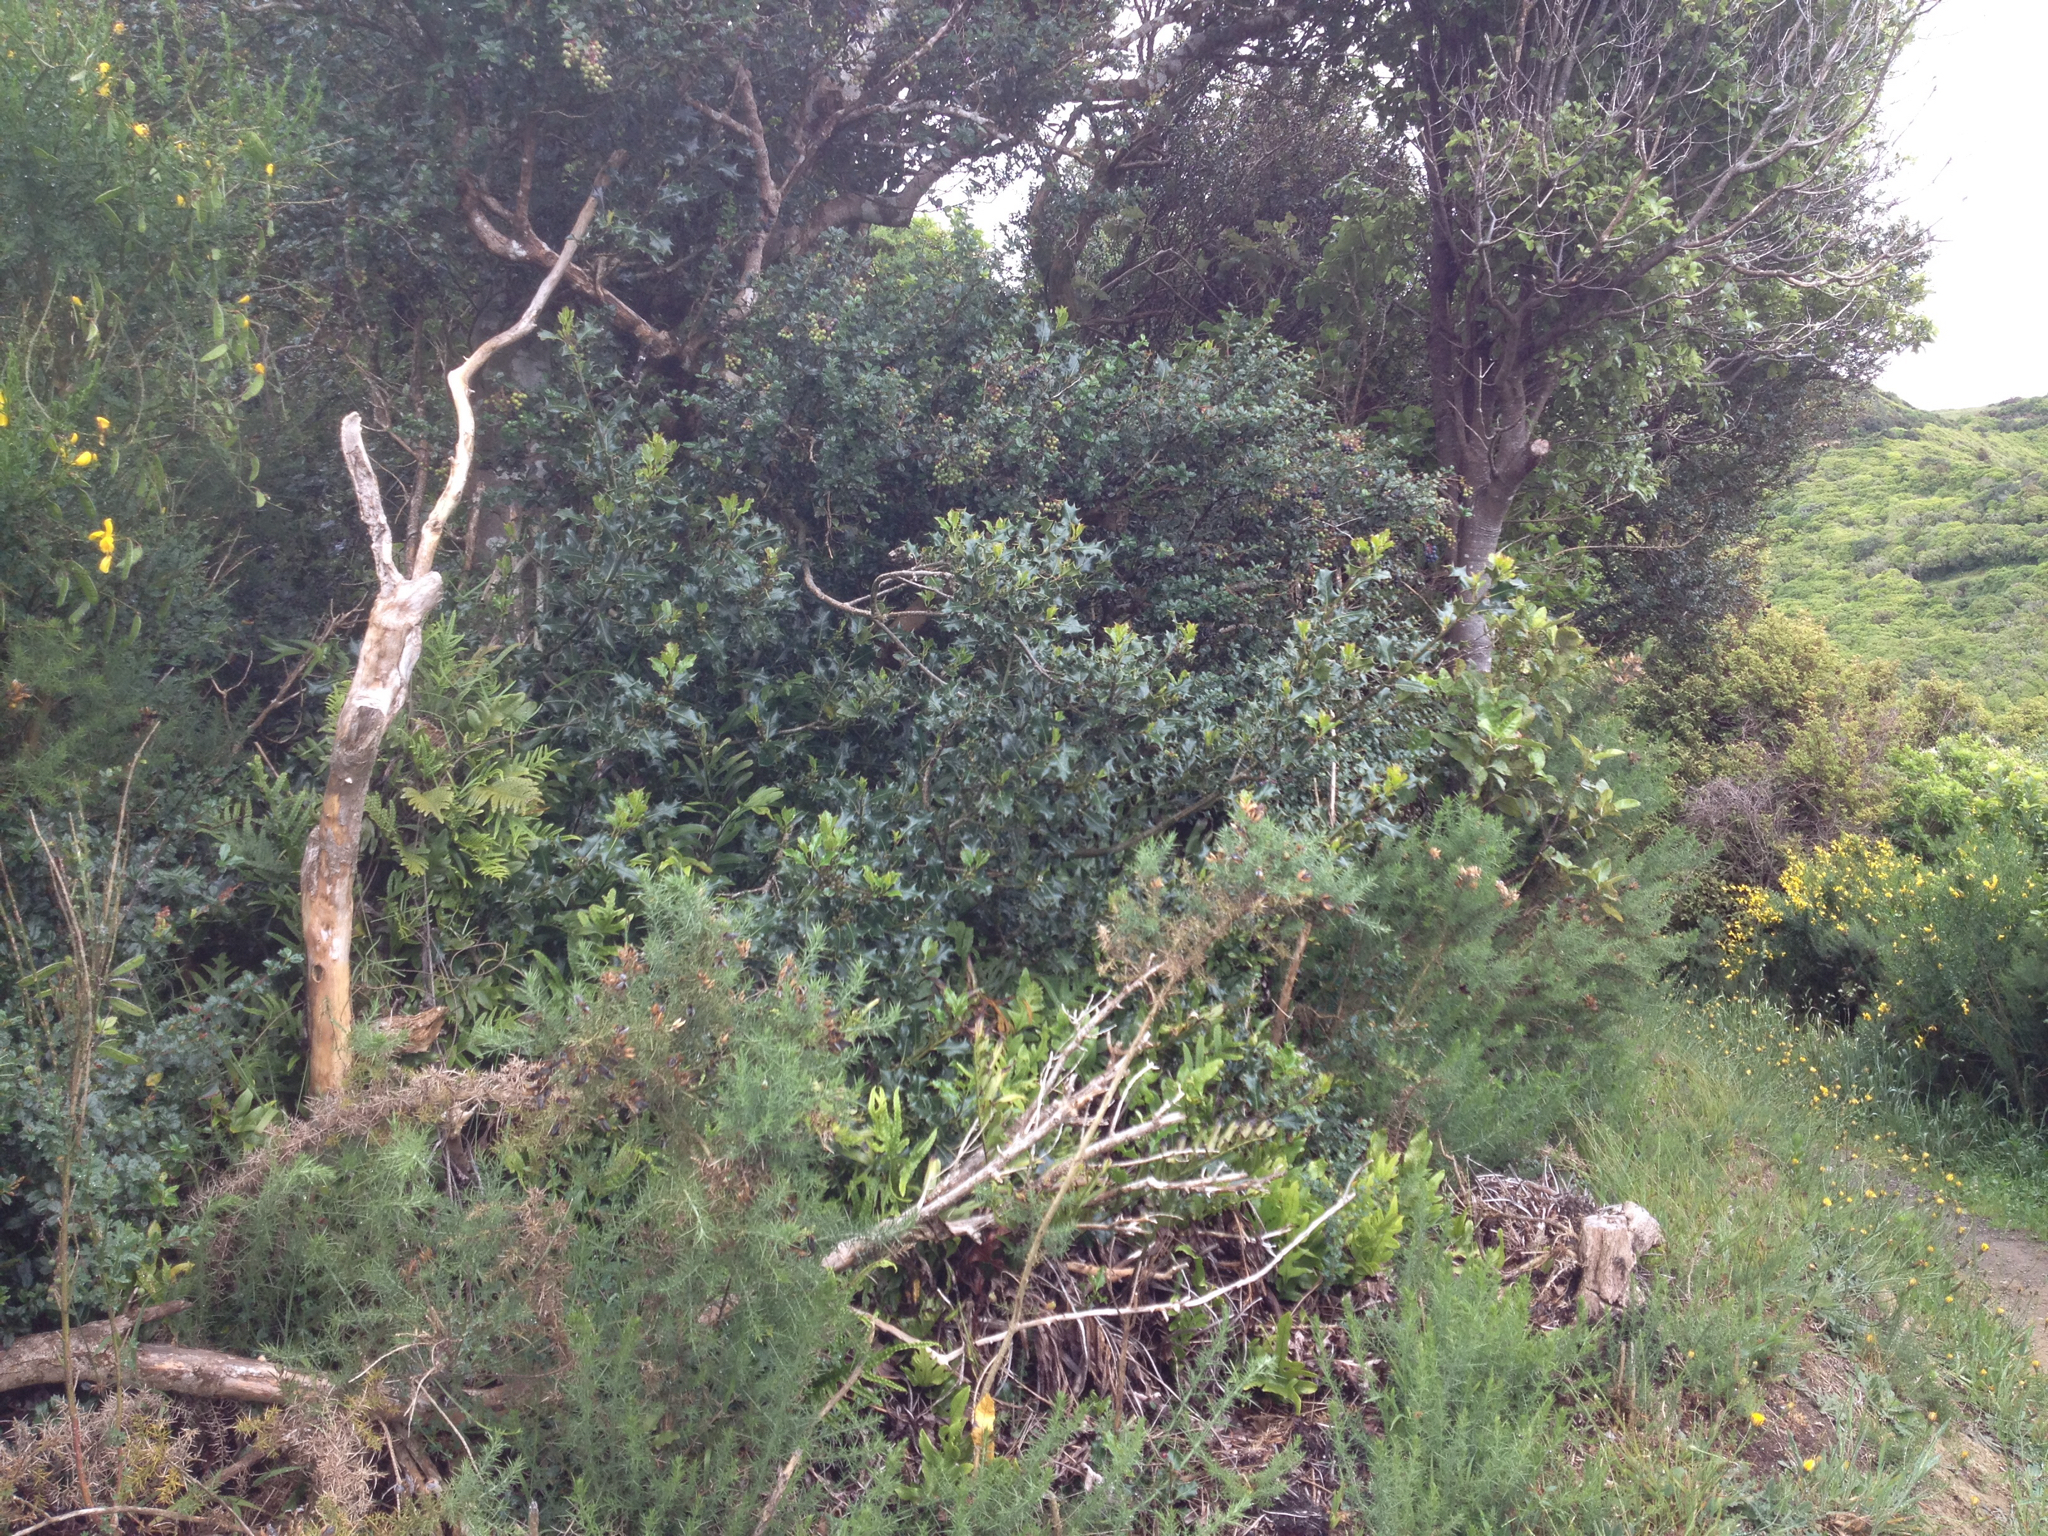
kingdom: Plantae
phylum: Tracheophyta
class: Magnoliopsida
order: Aquifoliales
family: Aquifoliaceae
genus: Ilex
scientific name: Ilex aquifolium
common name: English holly
